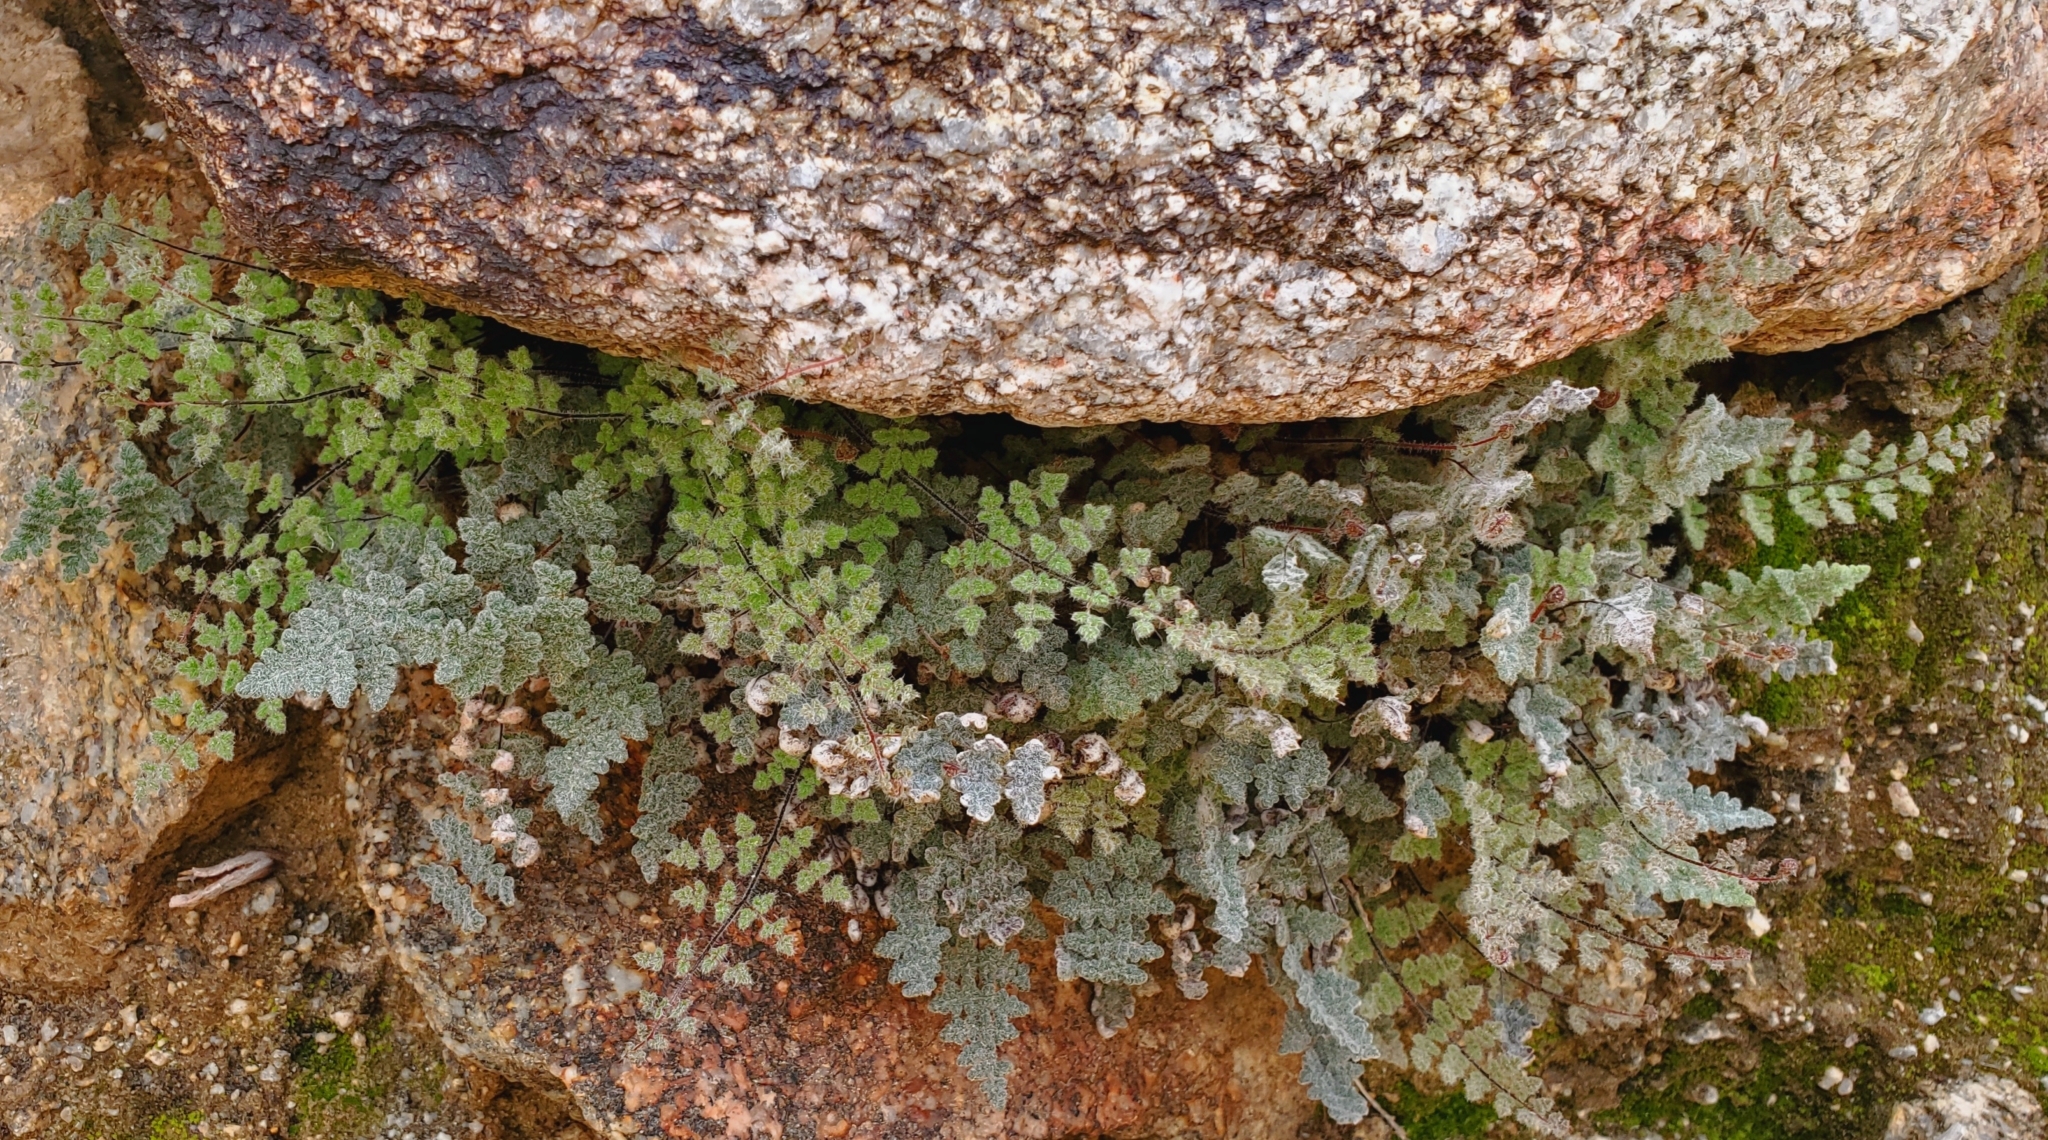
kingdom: Plantae
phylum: Tracheophyta
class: Polypodiopsida
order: Polypodiales
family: Pteridaceae
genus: Myriopteris
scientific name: Myriopteris parryi
